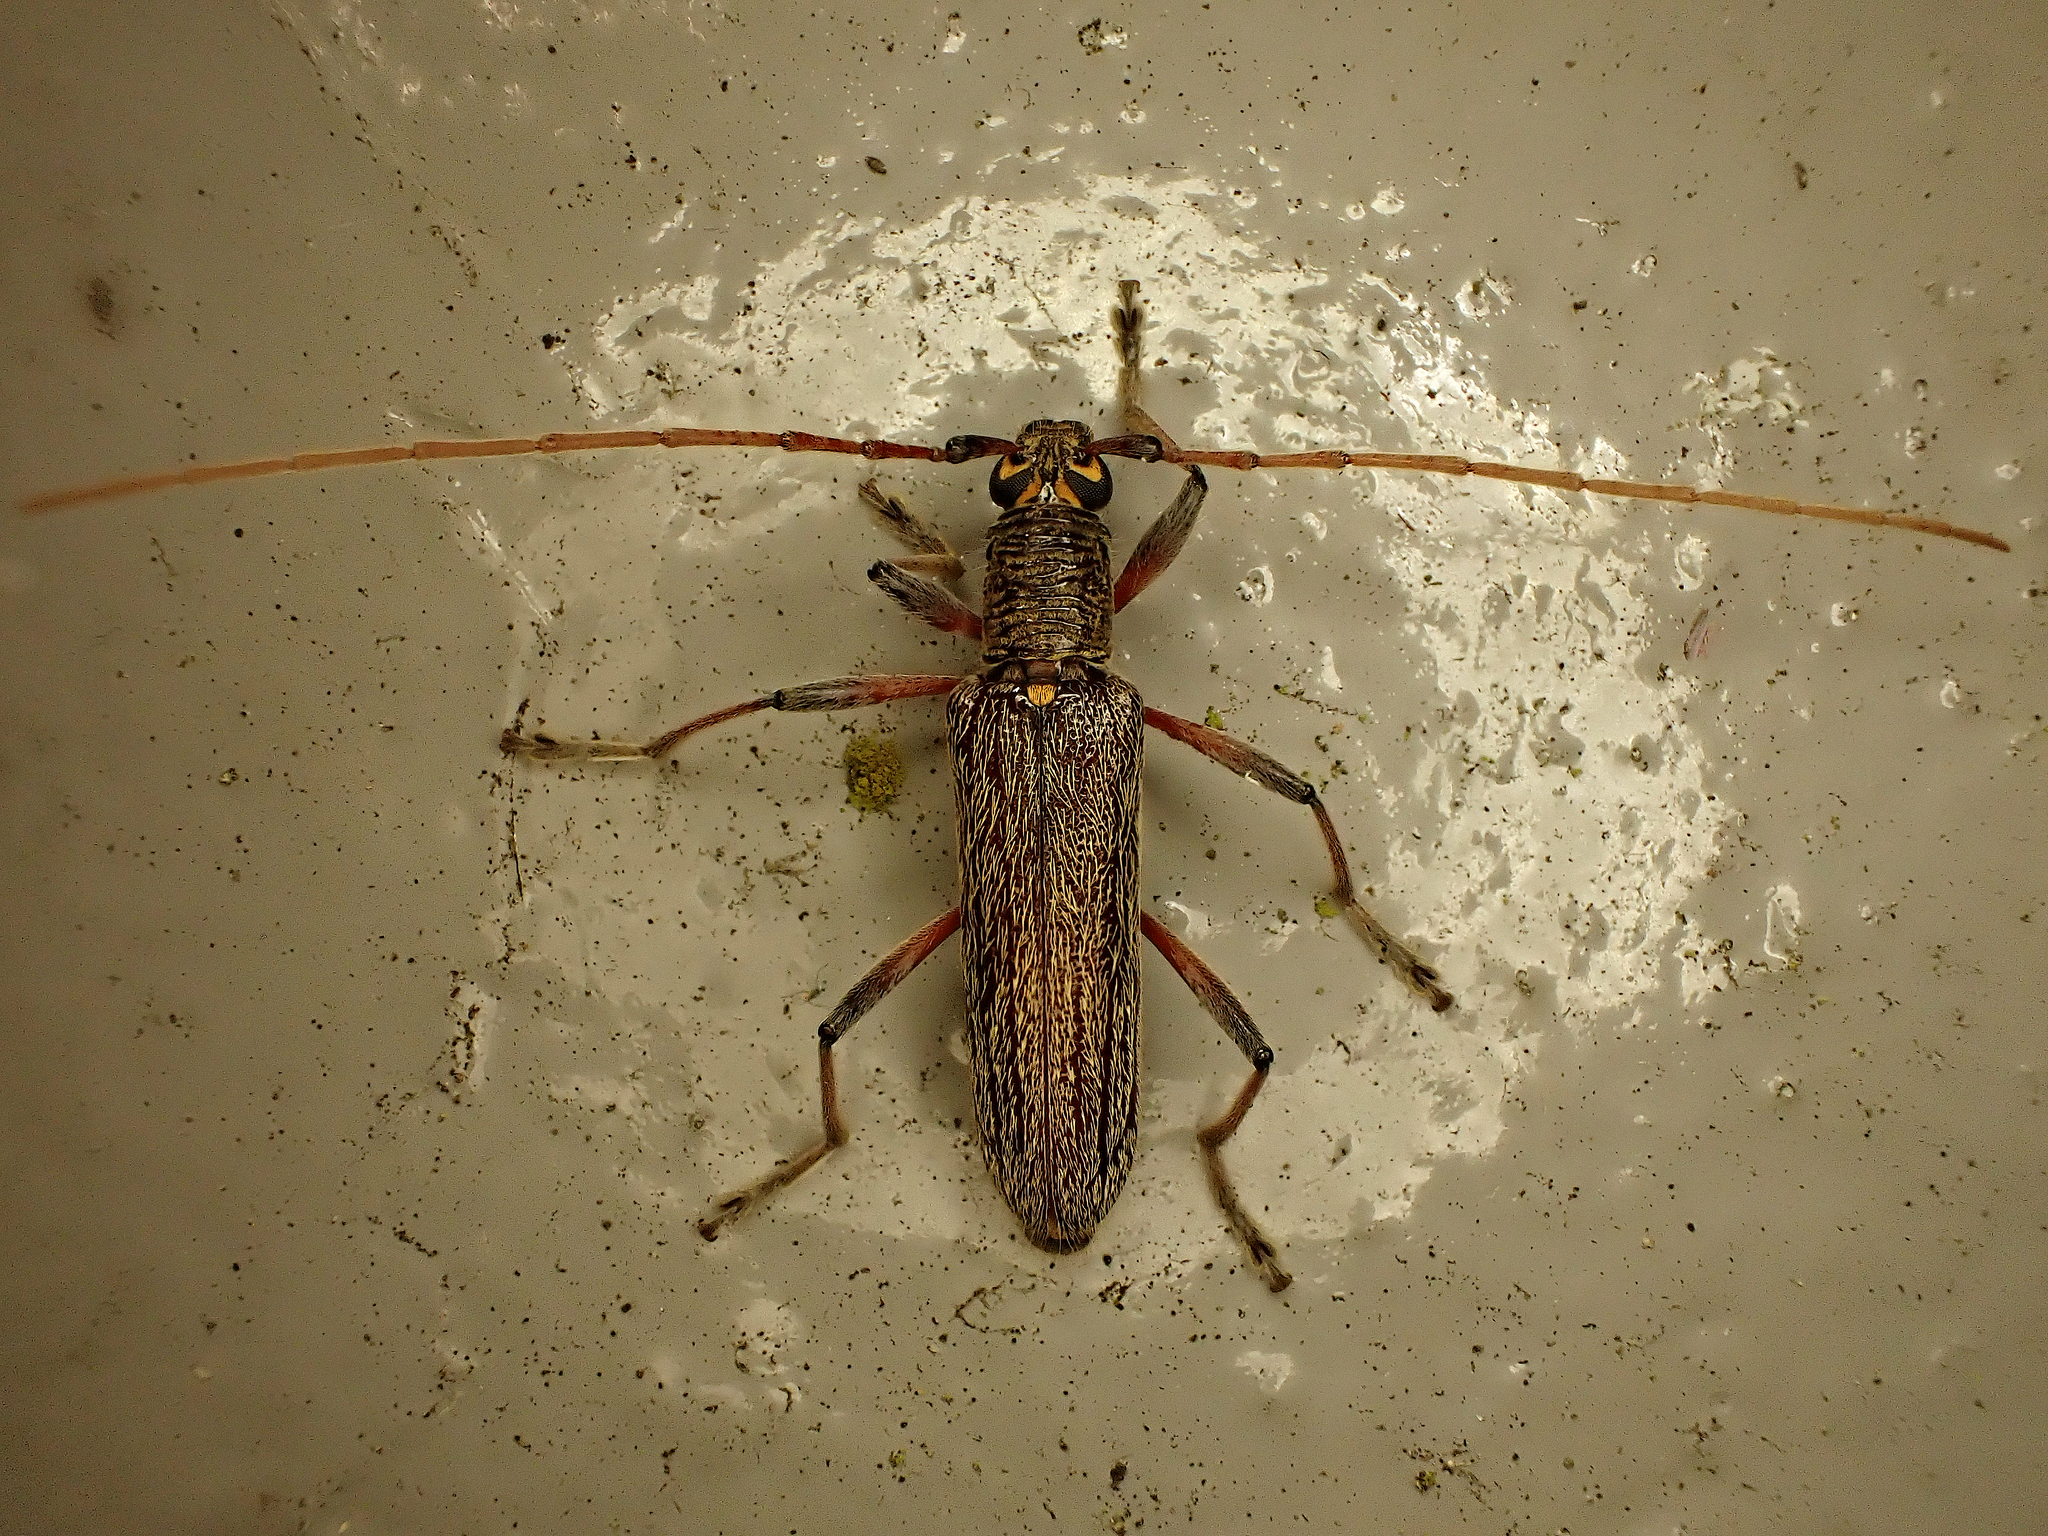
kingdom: Animalia
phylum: Arthropoda
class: Insecta
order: Coleoptera
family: Cerambycidae
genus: Oemona
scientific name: Oemona hirta
